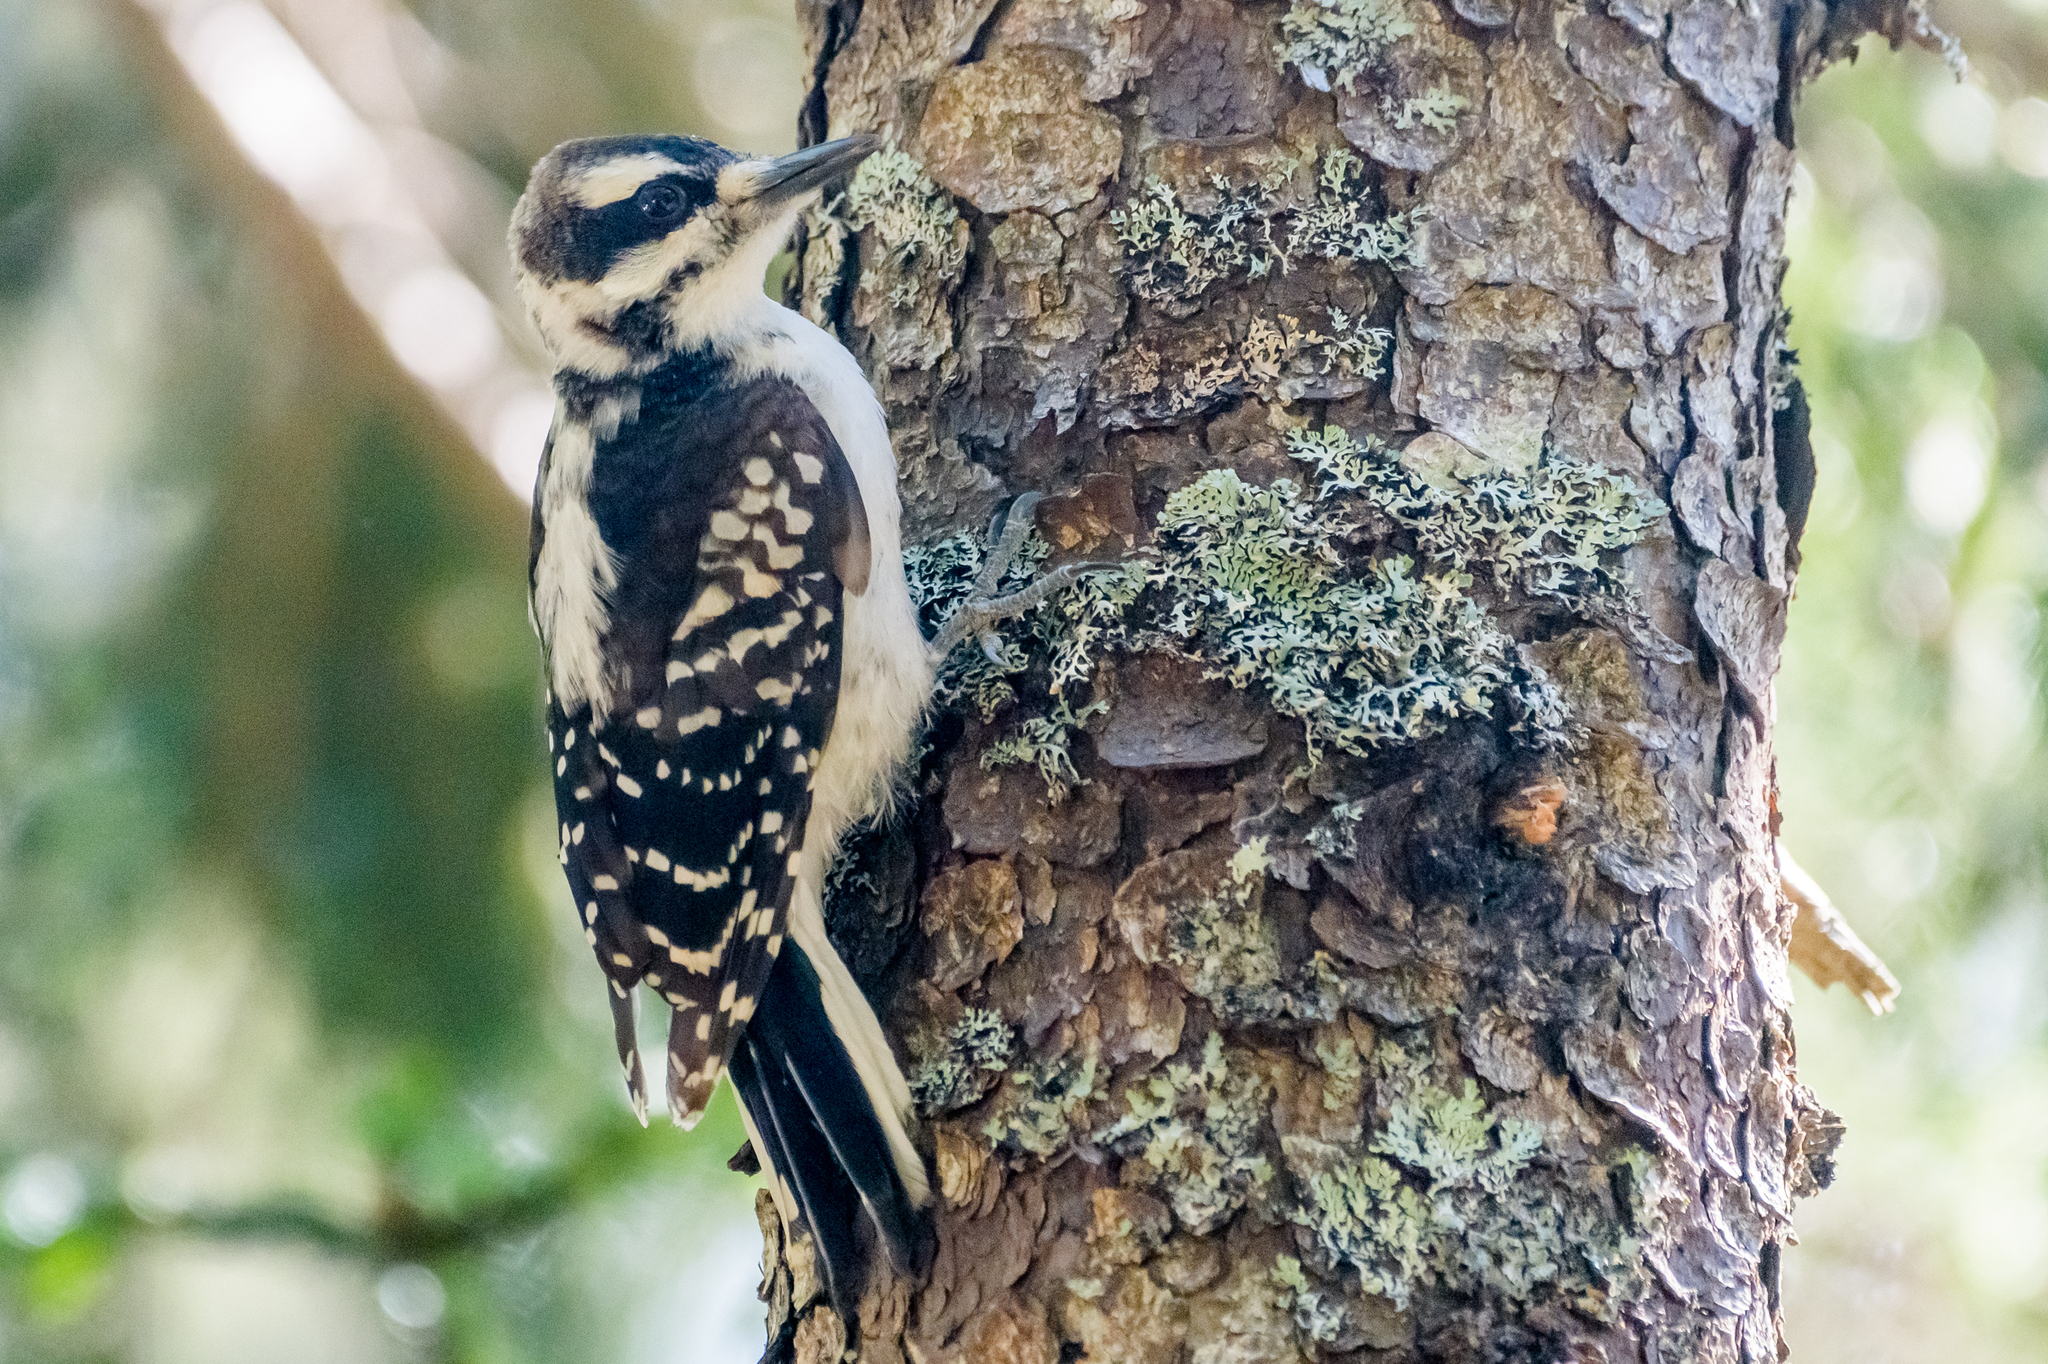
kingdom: Animalia
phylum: Chordata
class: Aves
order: Piciformes
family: Picidae
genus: Leuconotopicus
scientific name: Leuconotopicus villosus
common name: Hairy woodpecker
